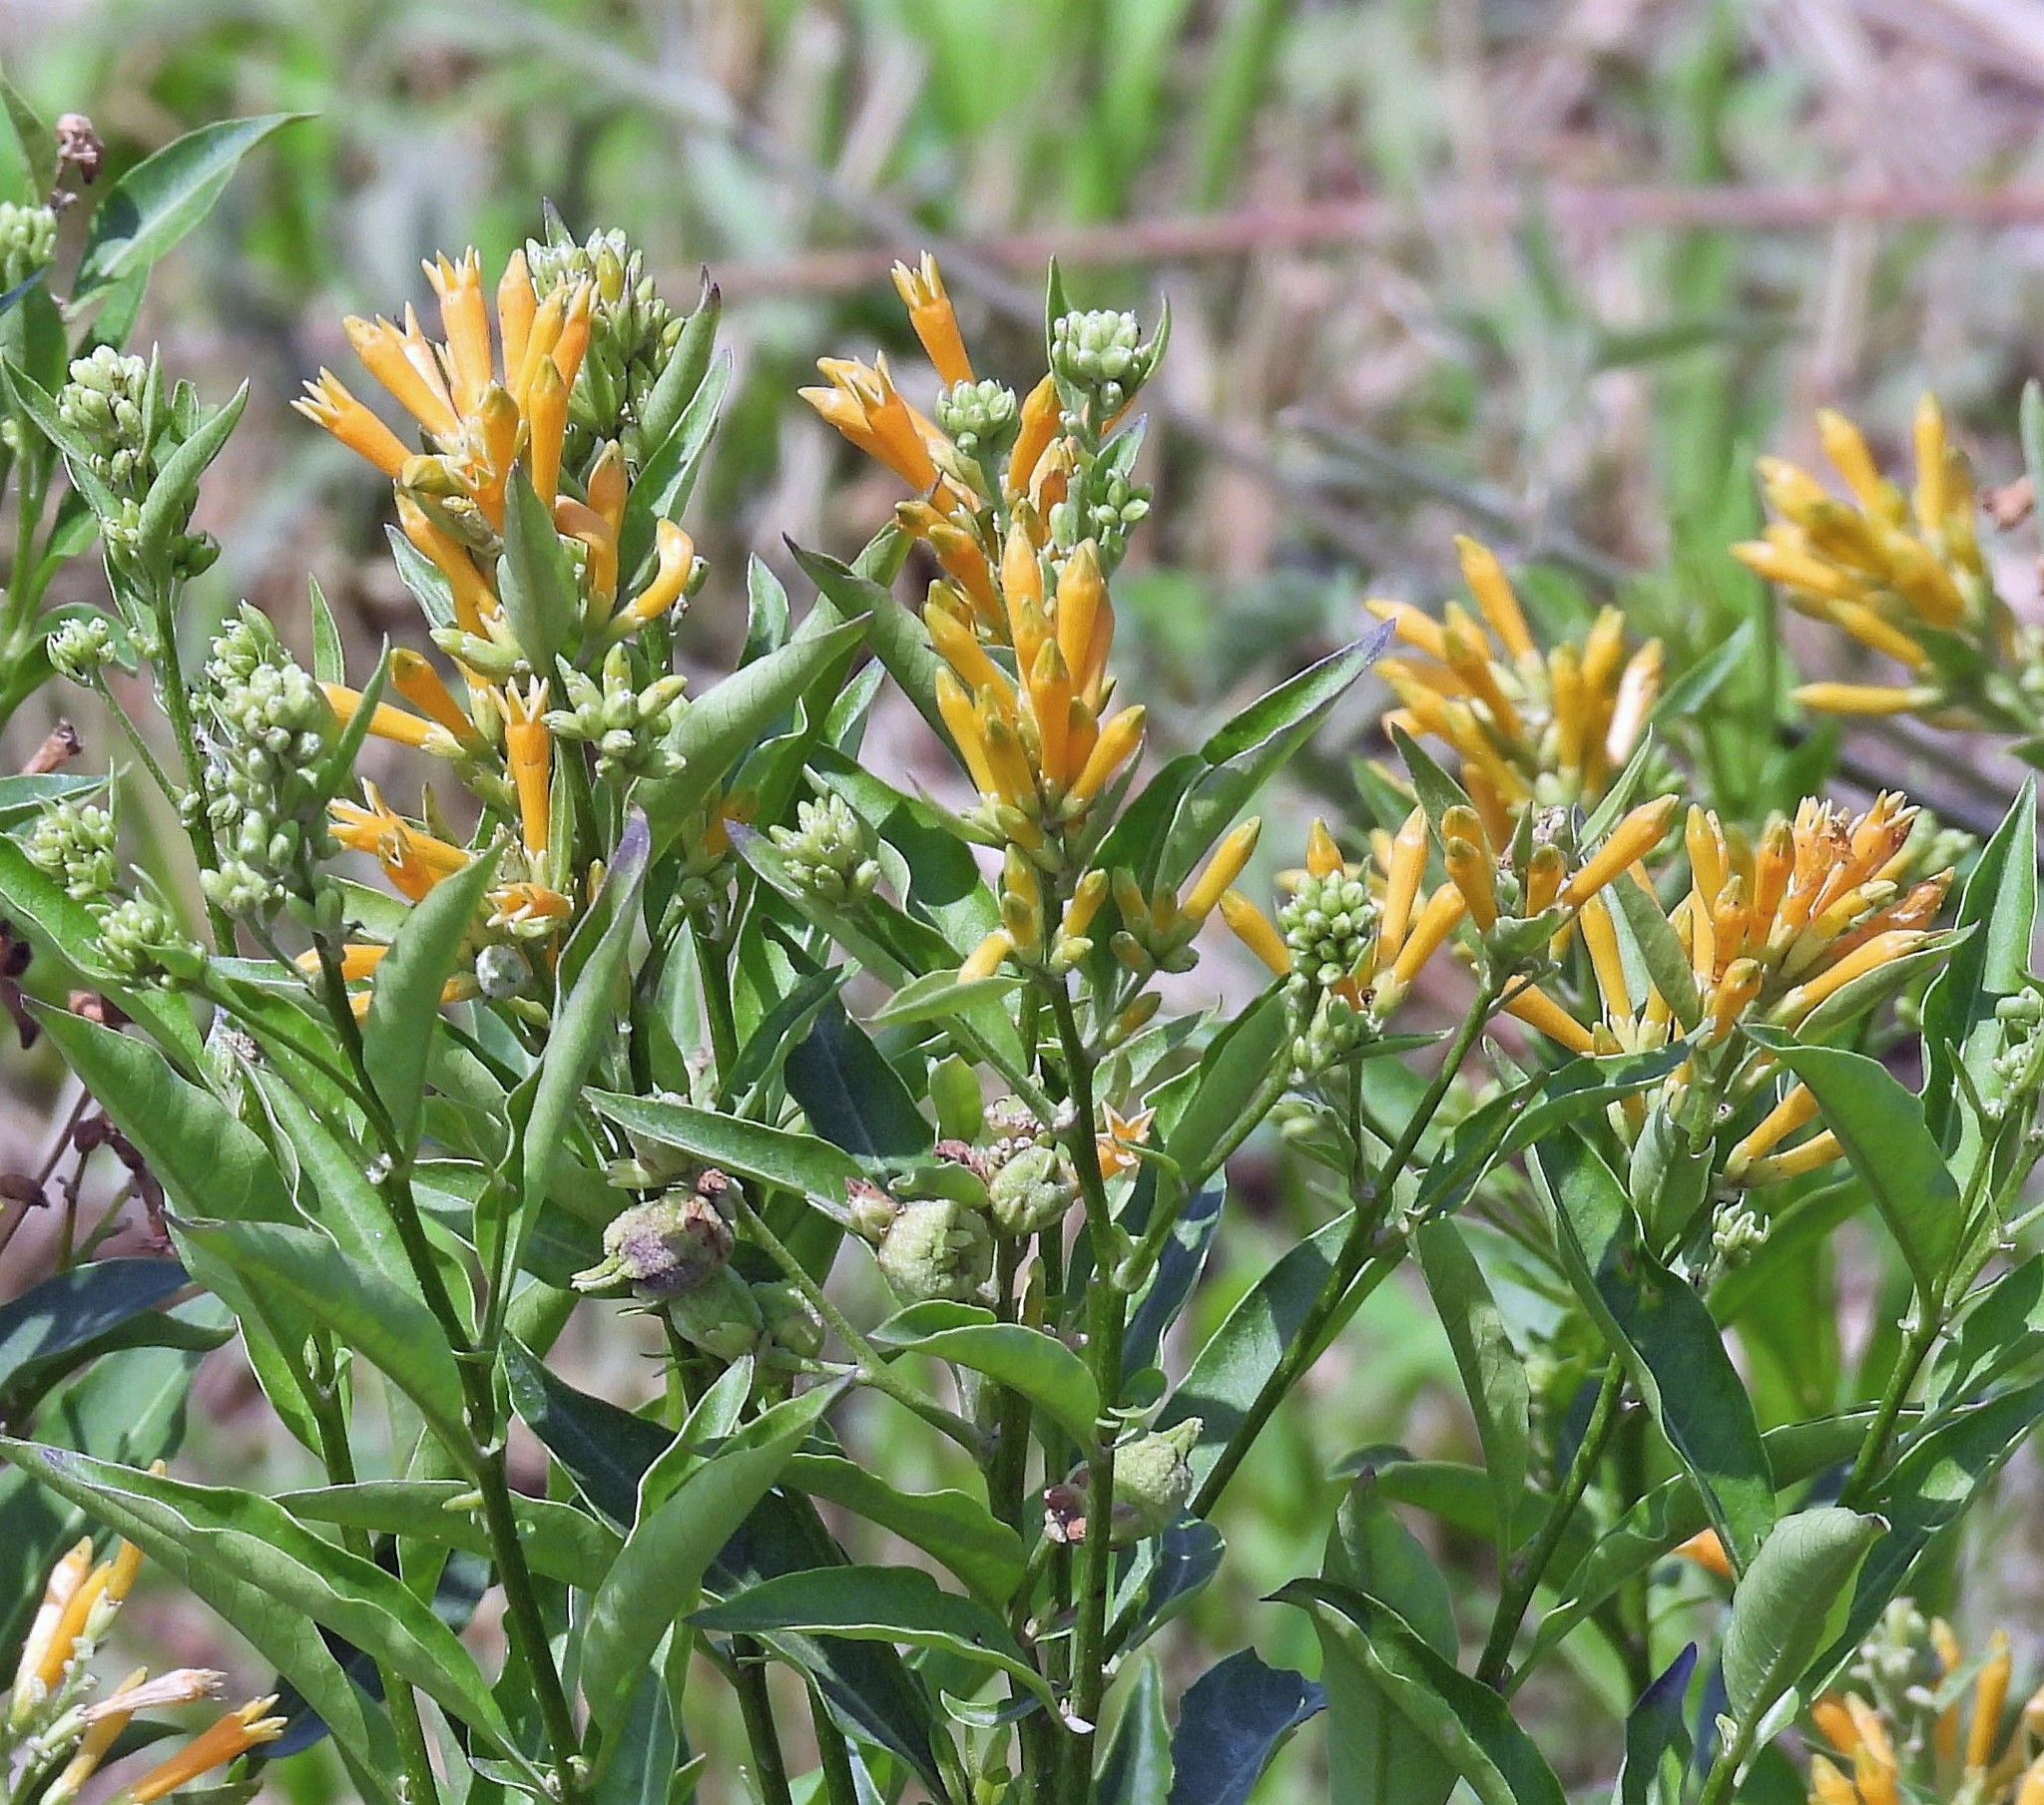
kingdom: Plantae
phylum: Tracheophyta
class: Magnoliopsida
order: Solanales
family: Solanaceae
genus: Cestrum
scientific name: Cestrum parqui
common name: Chilean cestrum
